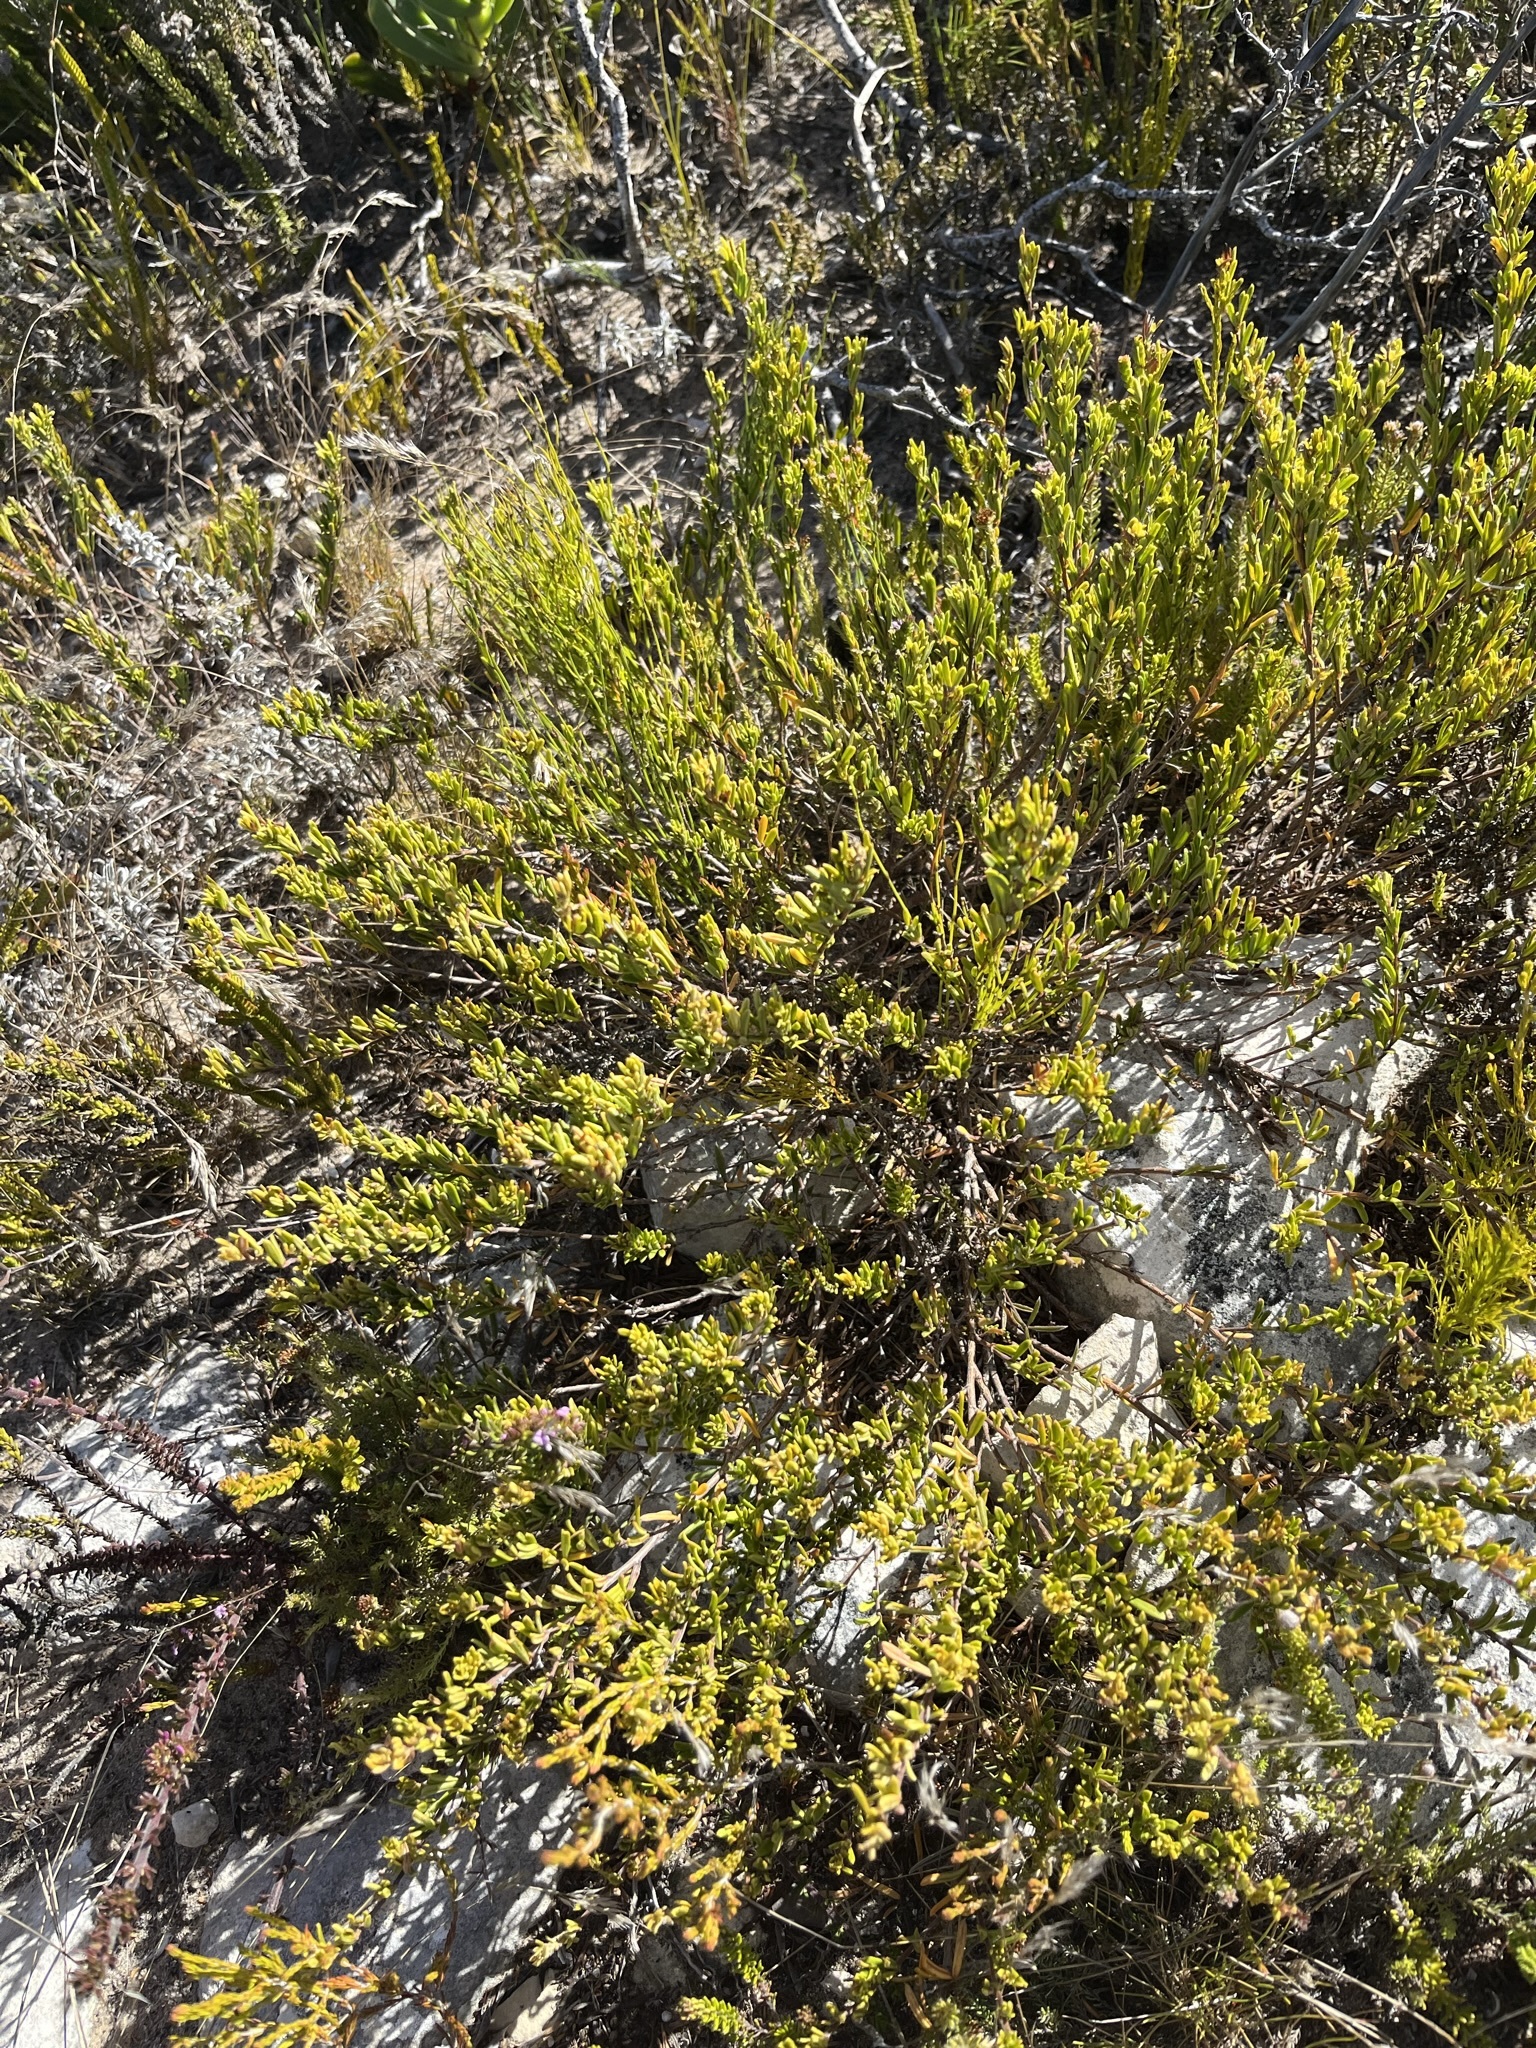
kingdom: Plantae
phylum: Tracheophyta
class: Magnoliopsida
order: Fabales
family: Fabaceae
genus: Indigofera
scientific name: Indigofera
